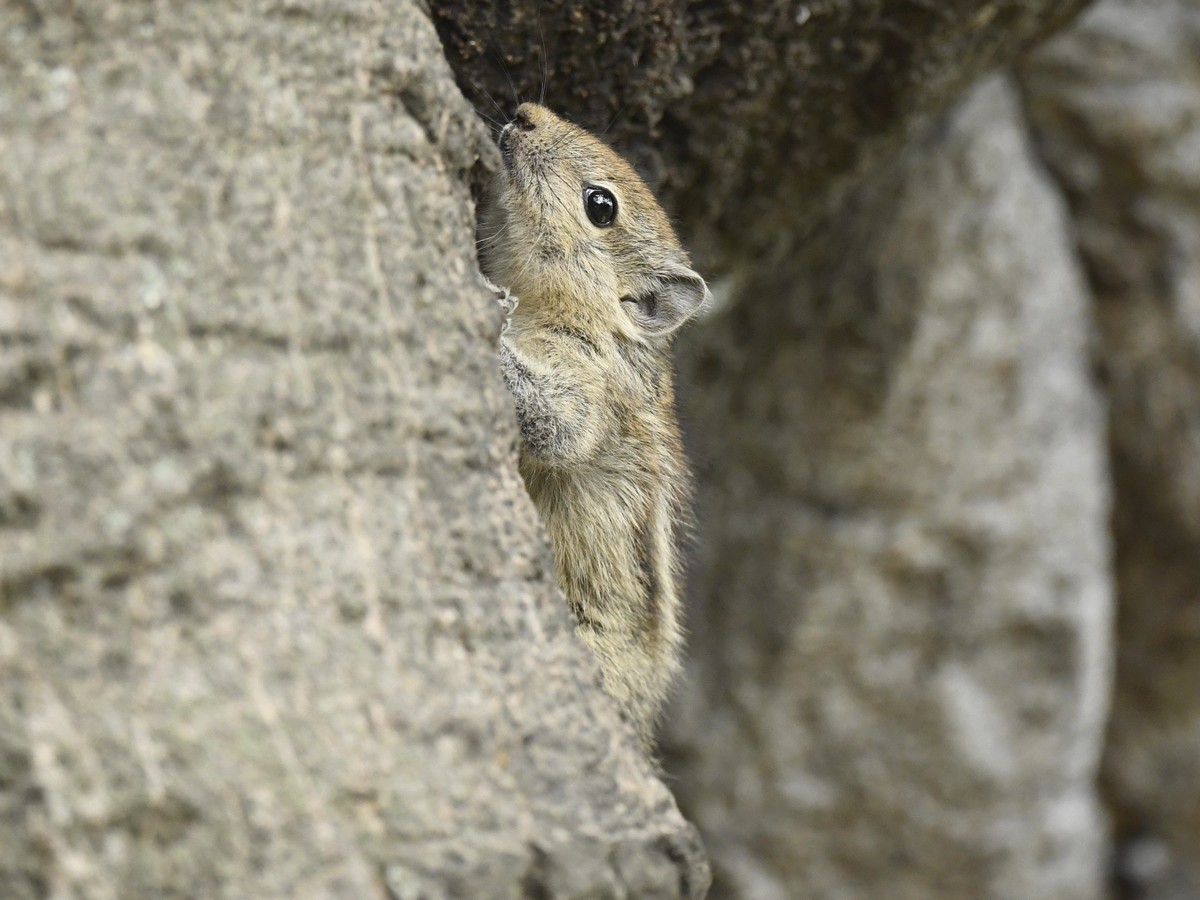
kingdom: Animalia
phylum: Chordata
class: Mammalia
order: Rodentia
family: Sciuridae
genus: Funambulus
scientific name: Funambulus palmarum
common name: Indian palm squirrel
